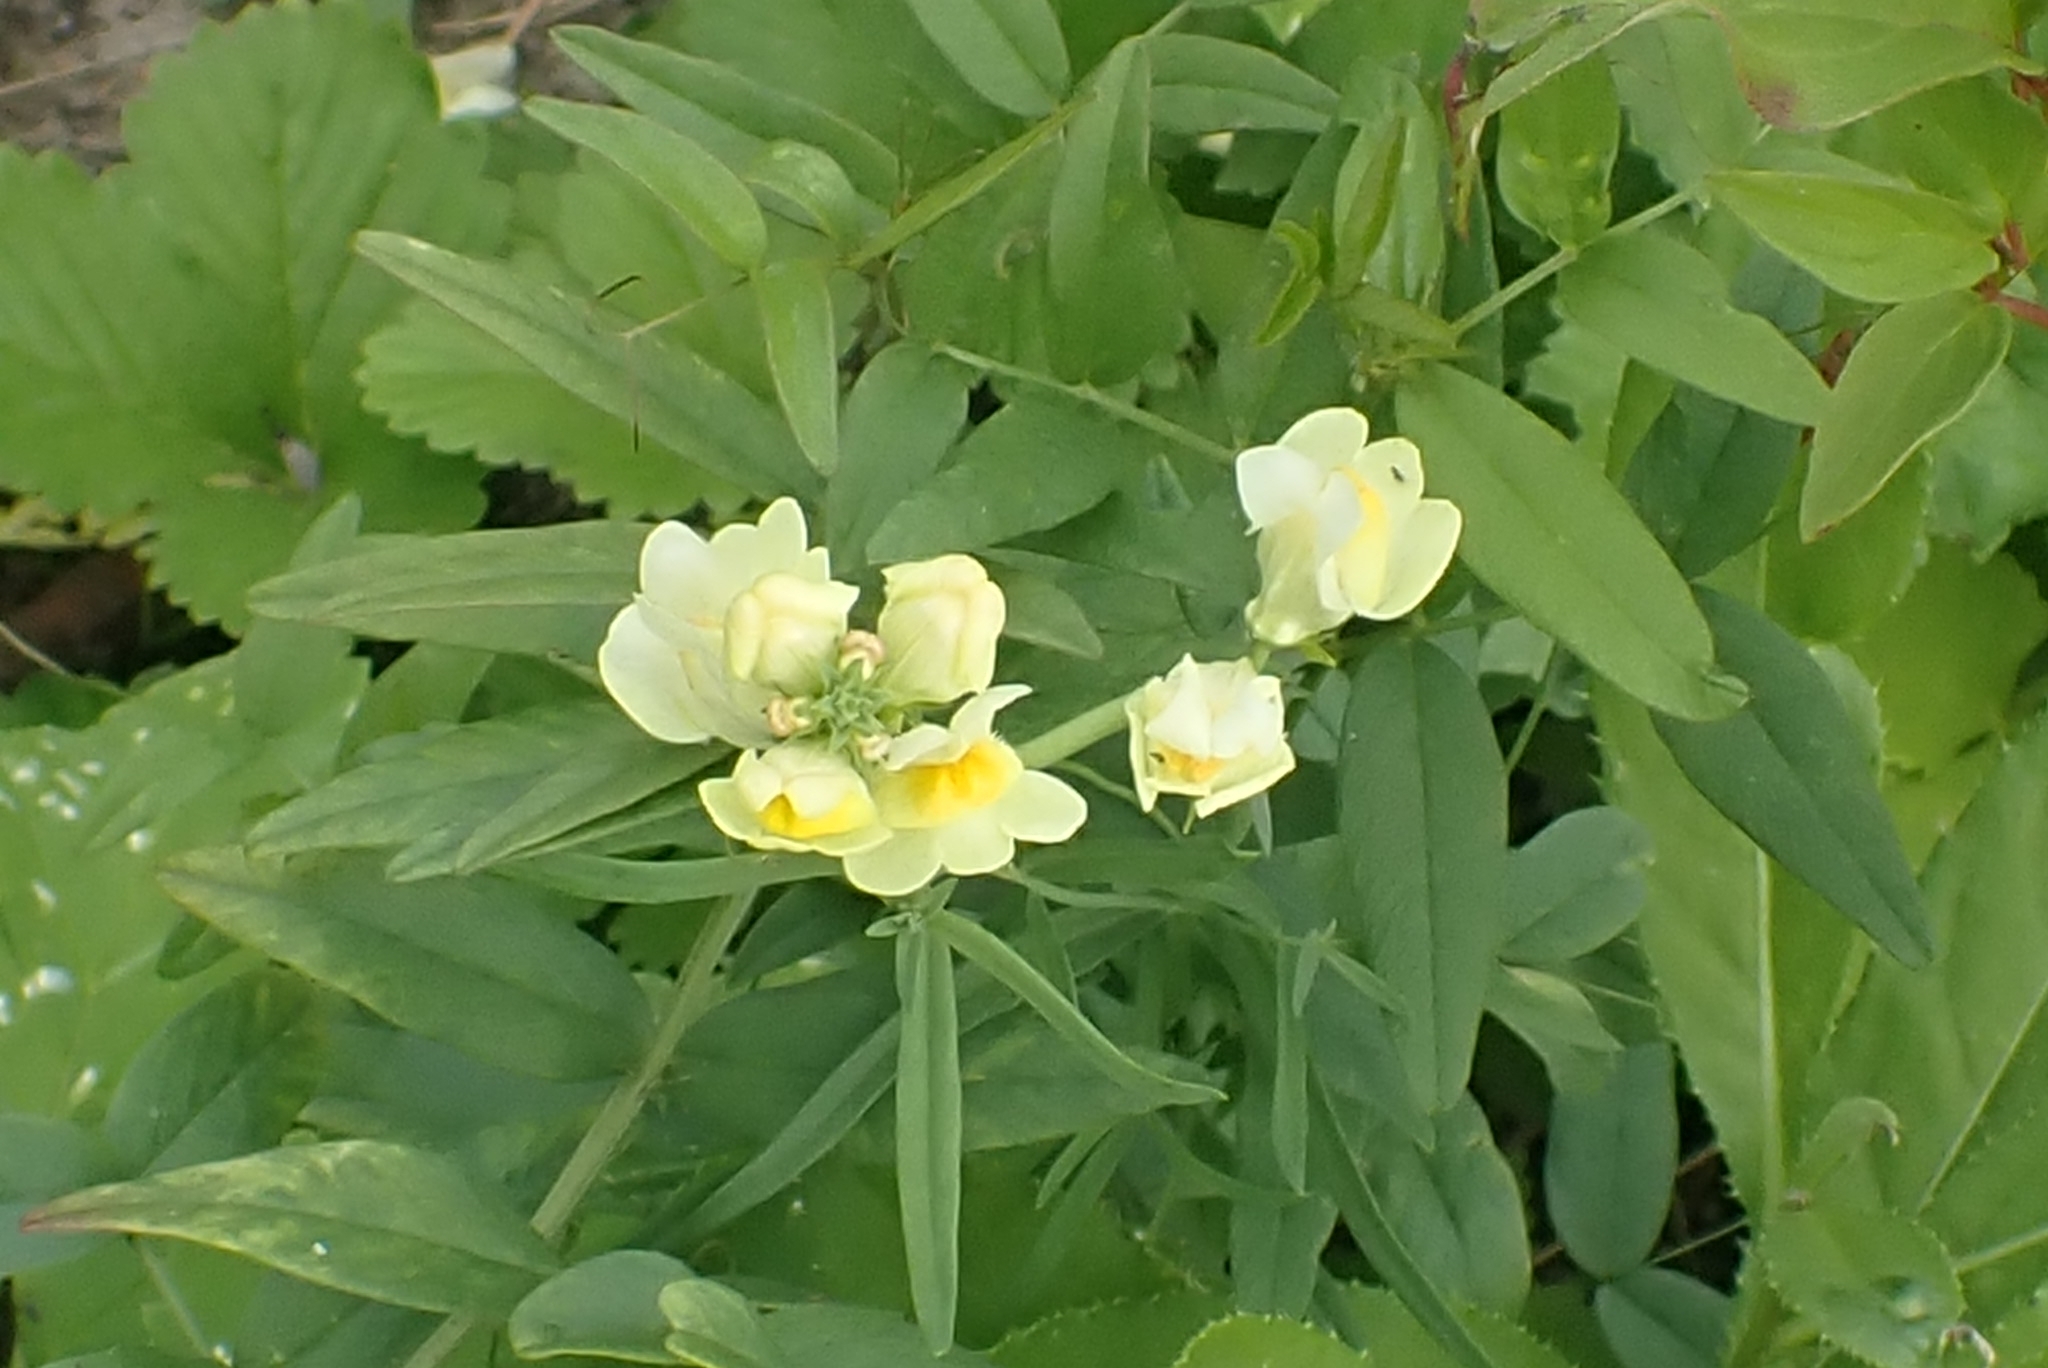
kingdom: Plantae
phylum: Tracheophyta
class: Magnoliopsida
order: Lamiales
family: Plantaginaceae
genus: Linaria
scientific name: Linaria vulgaris
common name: Butter and eggs
